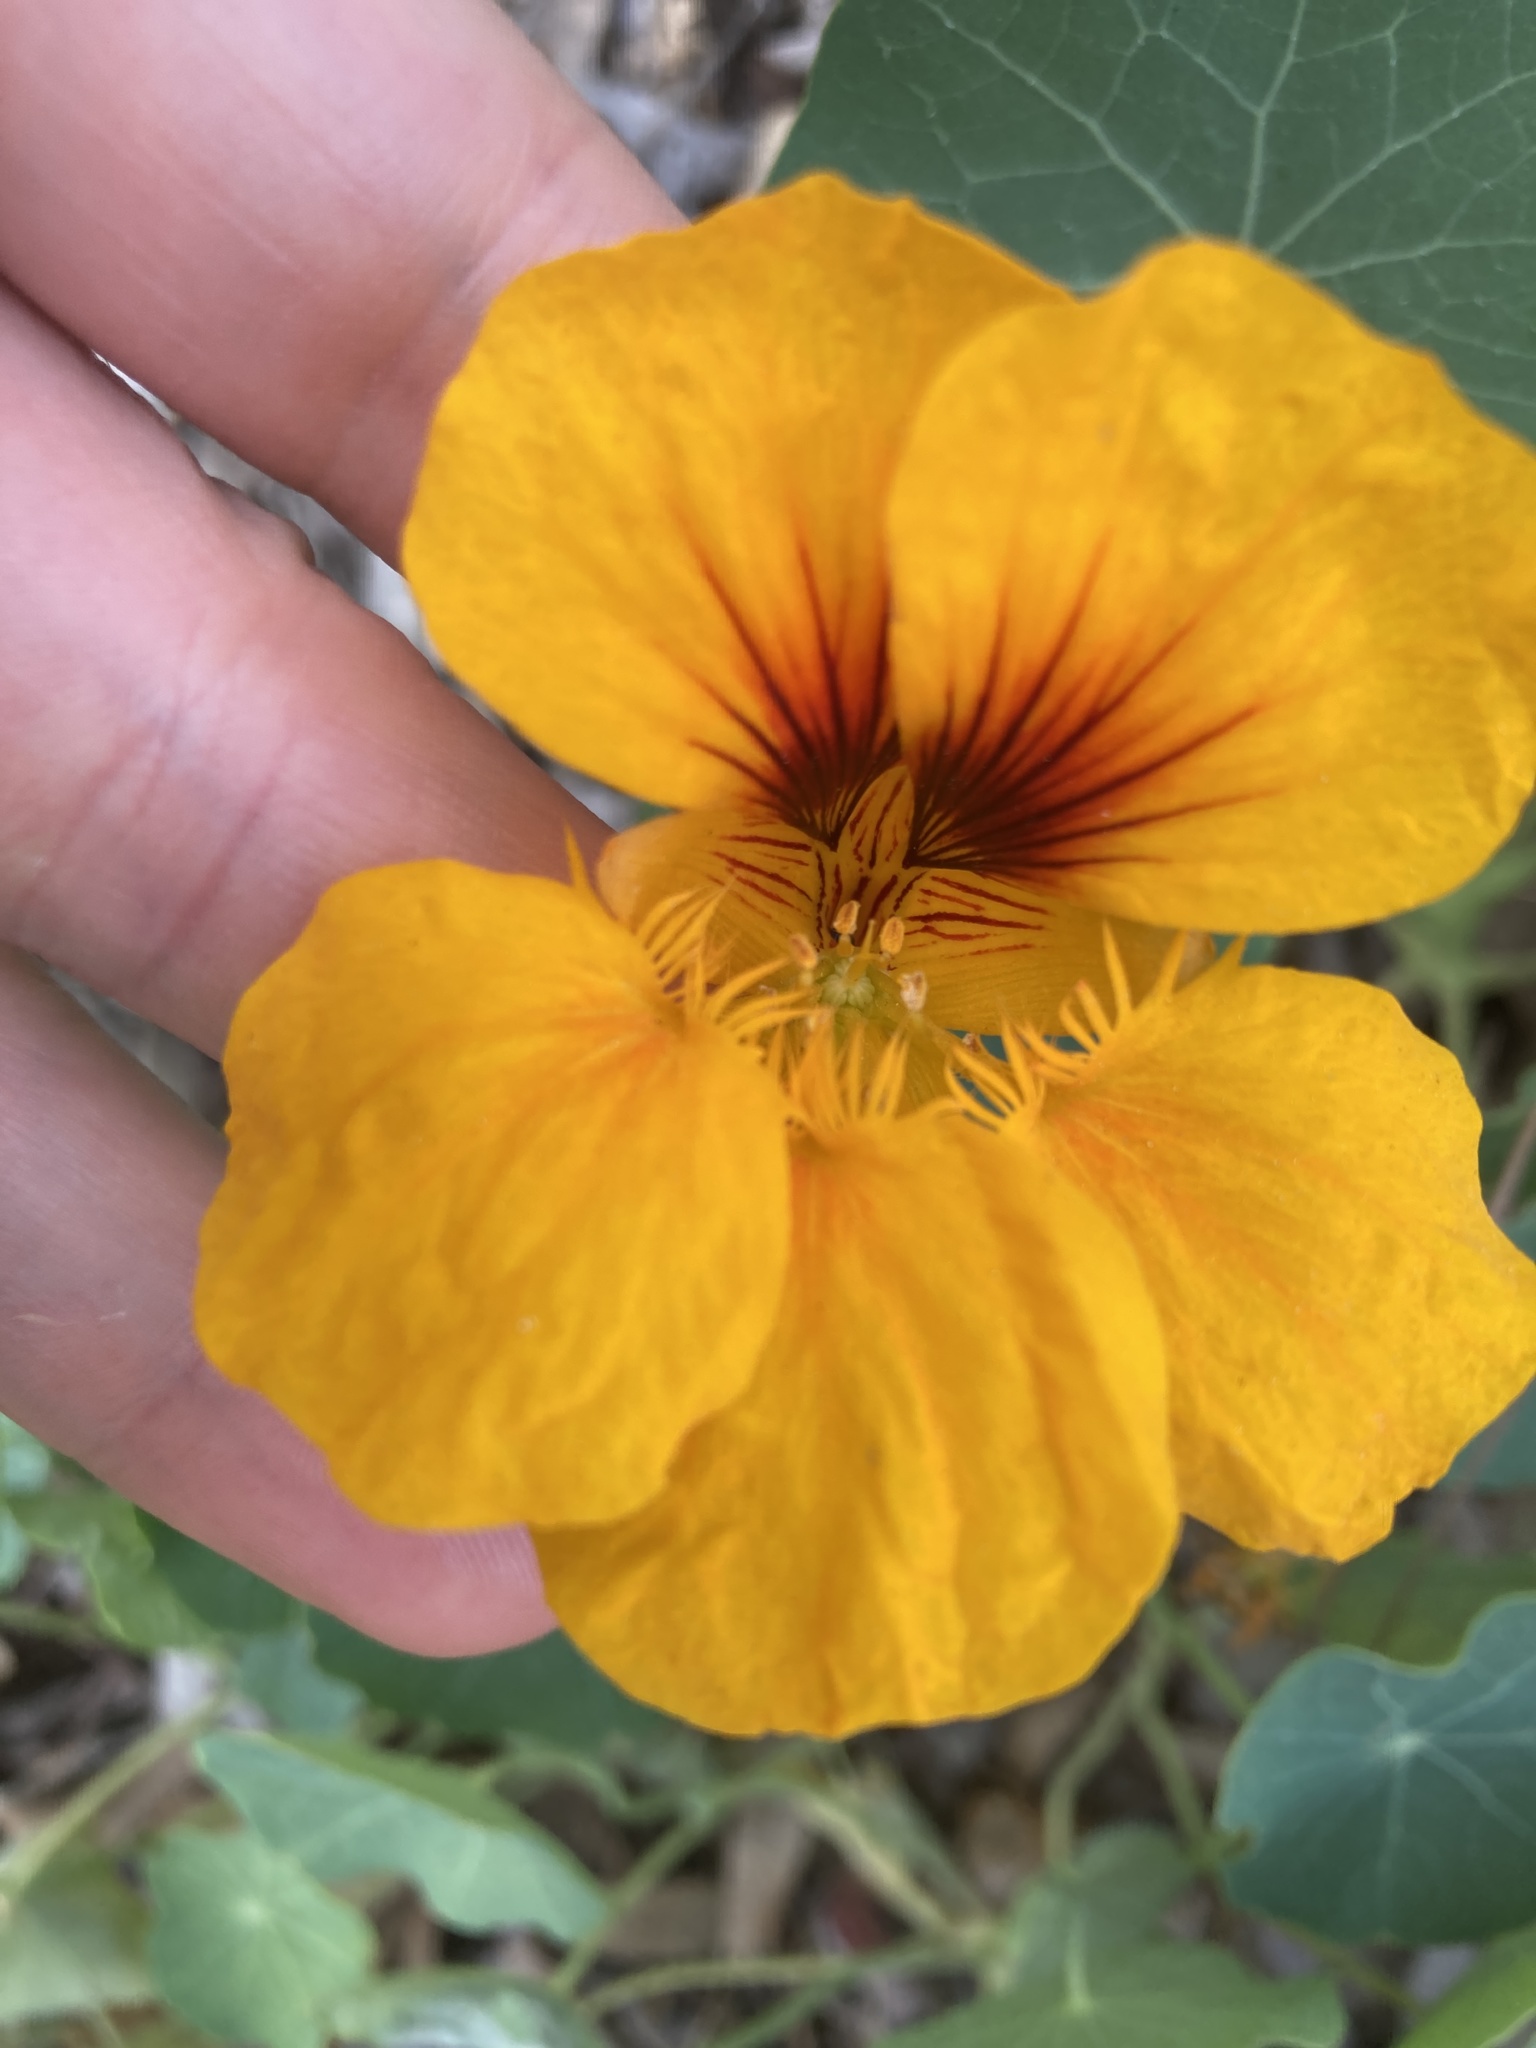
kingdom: Plantae
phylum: Tracheophyta
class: Magnoliopsida
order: Brassicales
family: Tropaeolaceae
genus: Tropaeolum
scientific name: Tropaeolum majus
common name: Nasturtium
